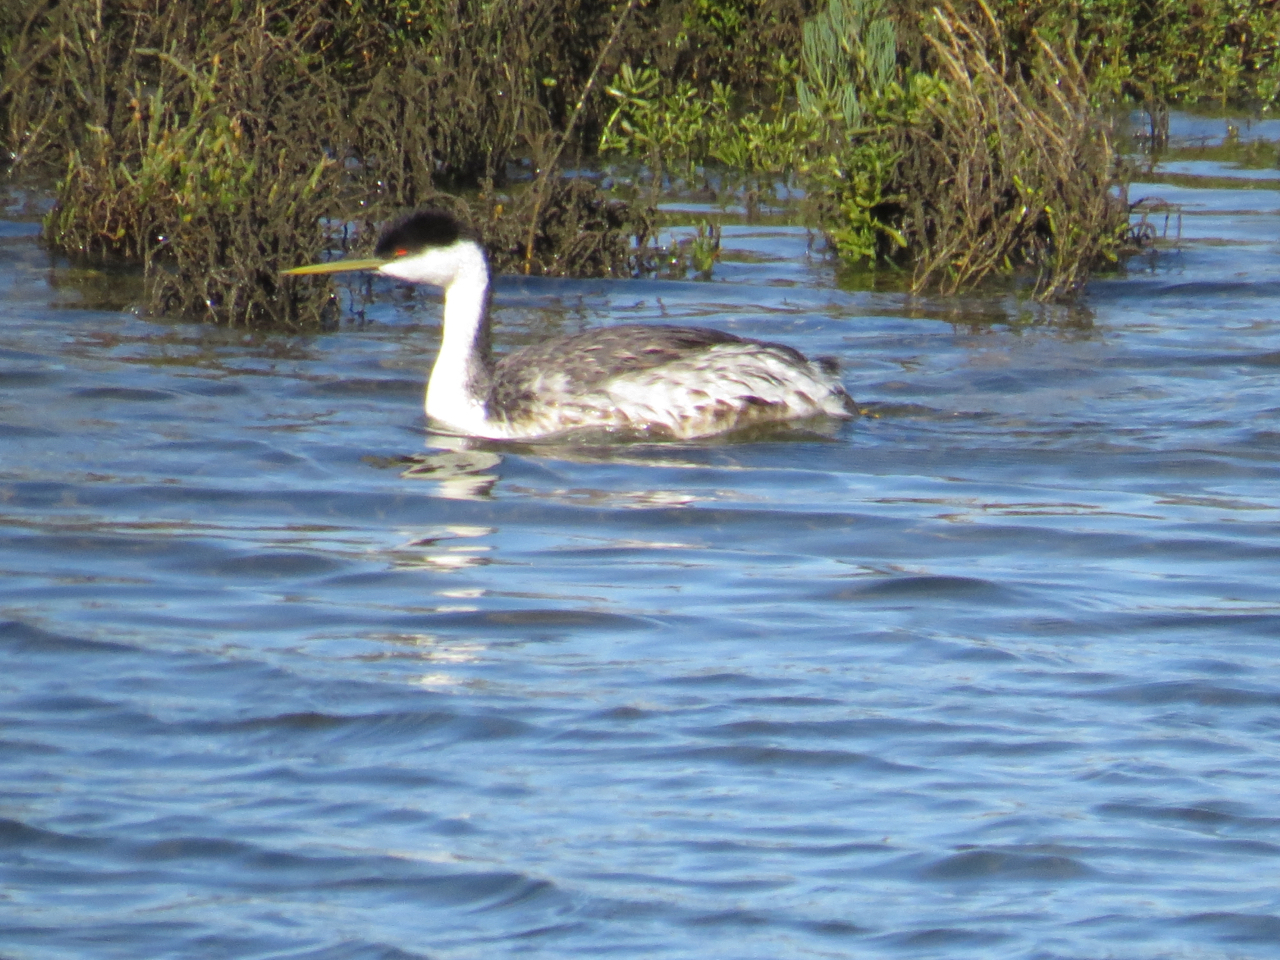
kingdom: Animalia
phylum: Chordata
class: Aves
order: Podicipediformes
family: Podicipedidae
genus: Aechmophorus
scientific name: Aechmophorus occidentalis
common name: Western grebe
